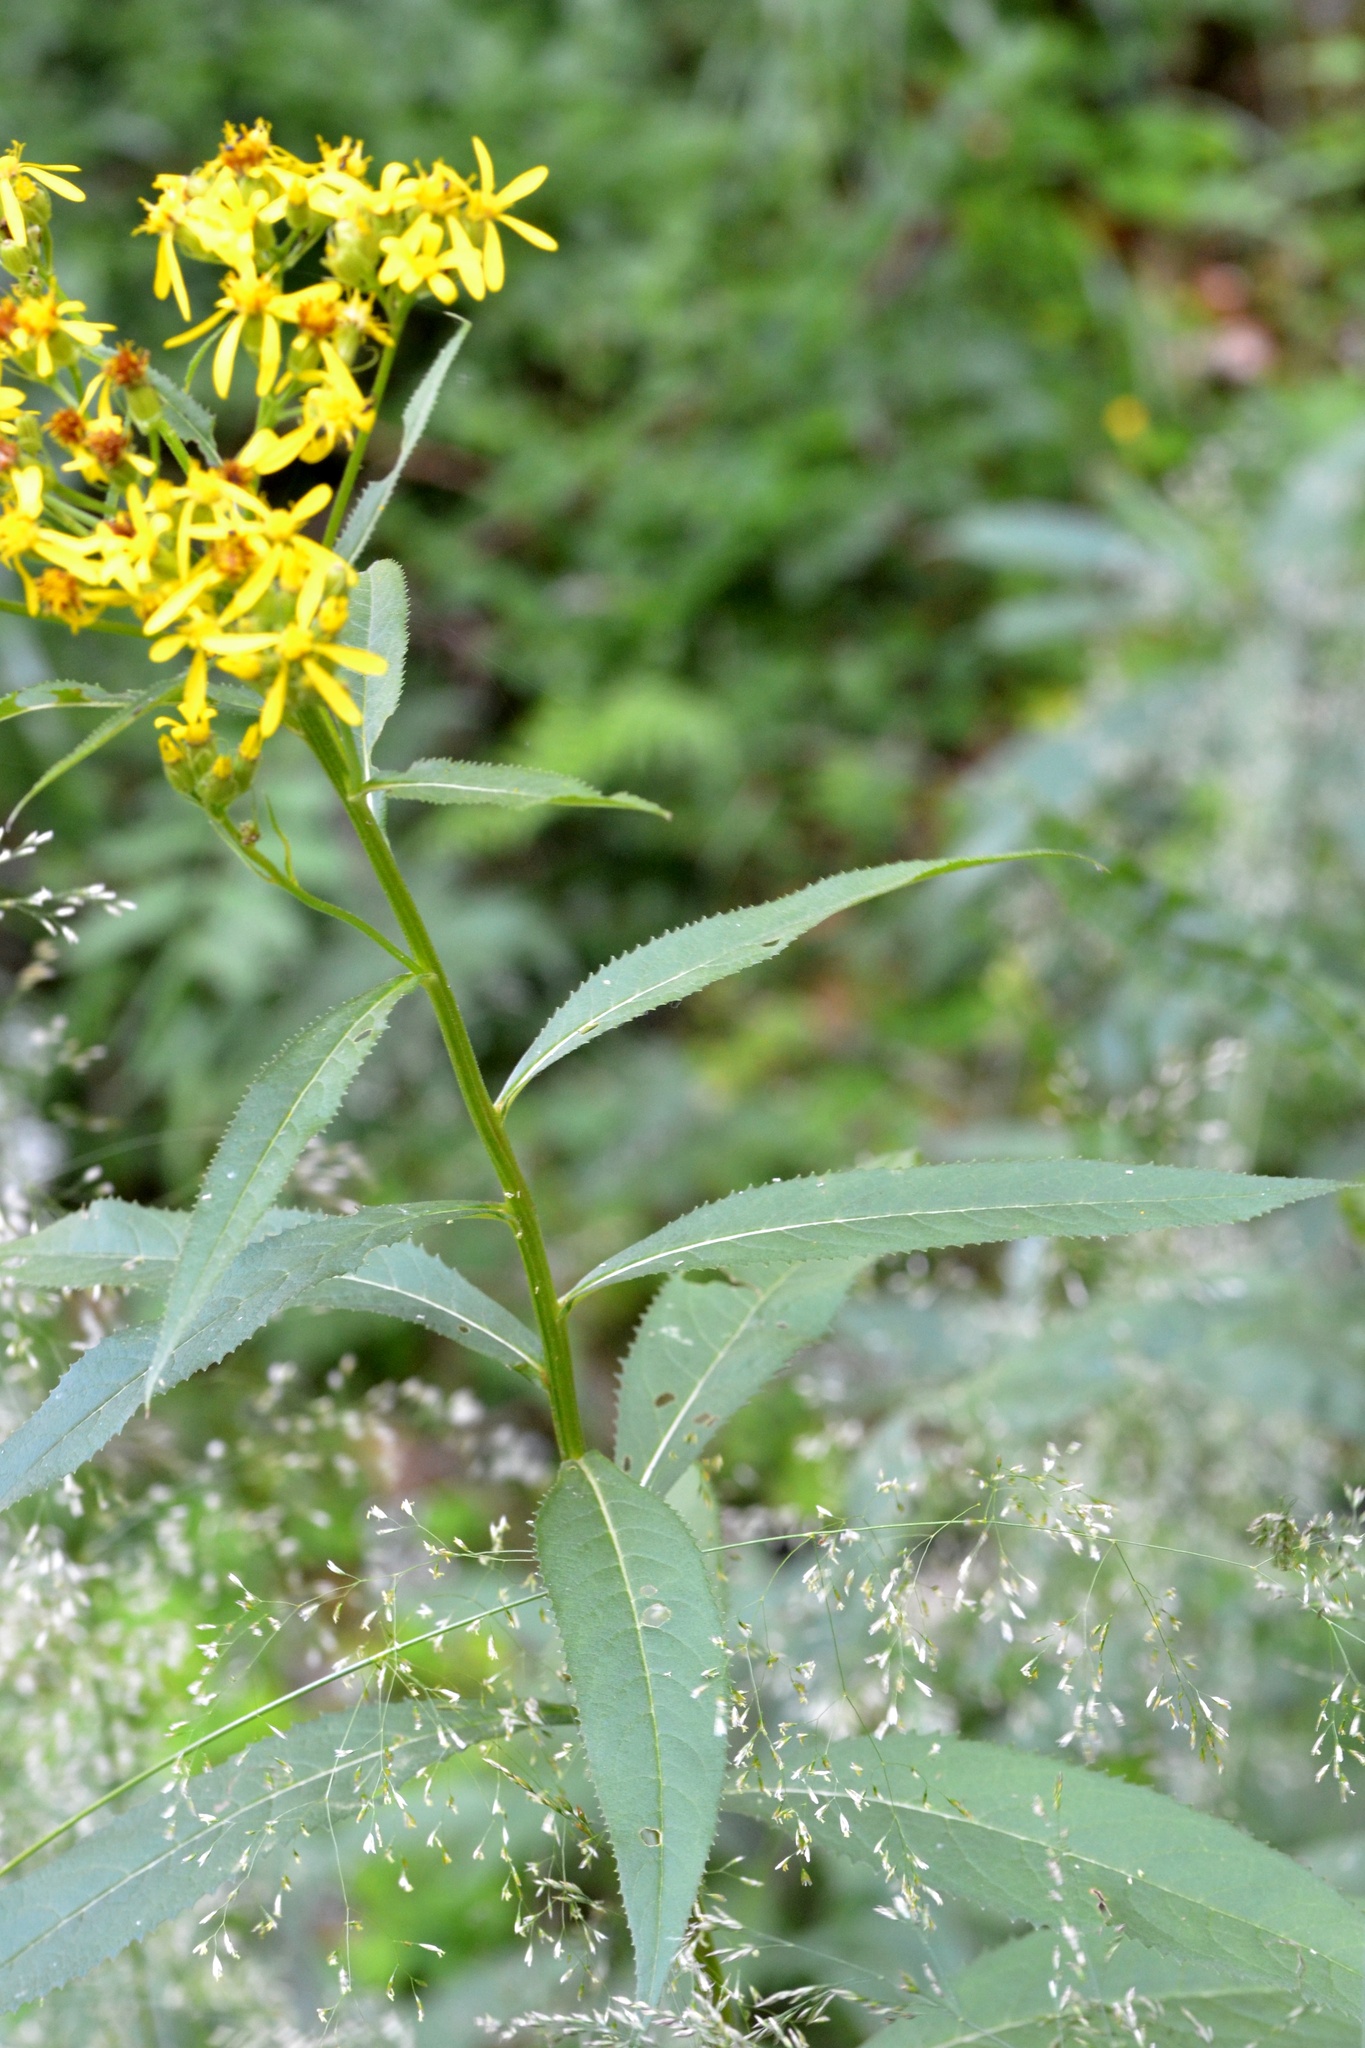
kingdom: Plantae
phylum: Tracheophyta
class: Magnoliopsida
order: Asterales
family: Asteraceae
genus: Senecio
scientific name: Senecio ovatus
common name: Wood ragwort
